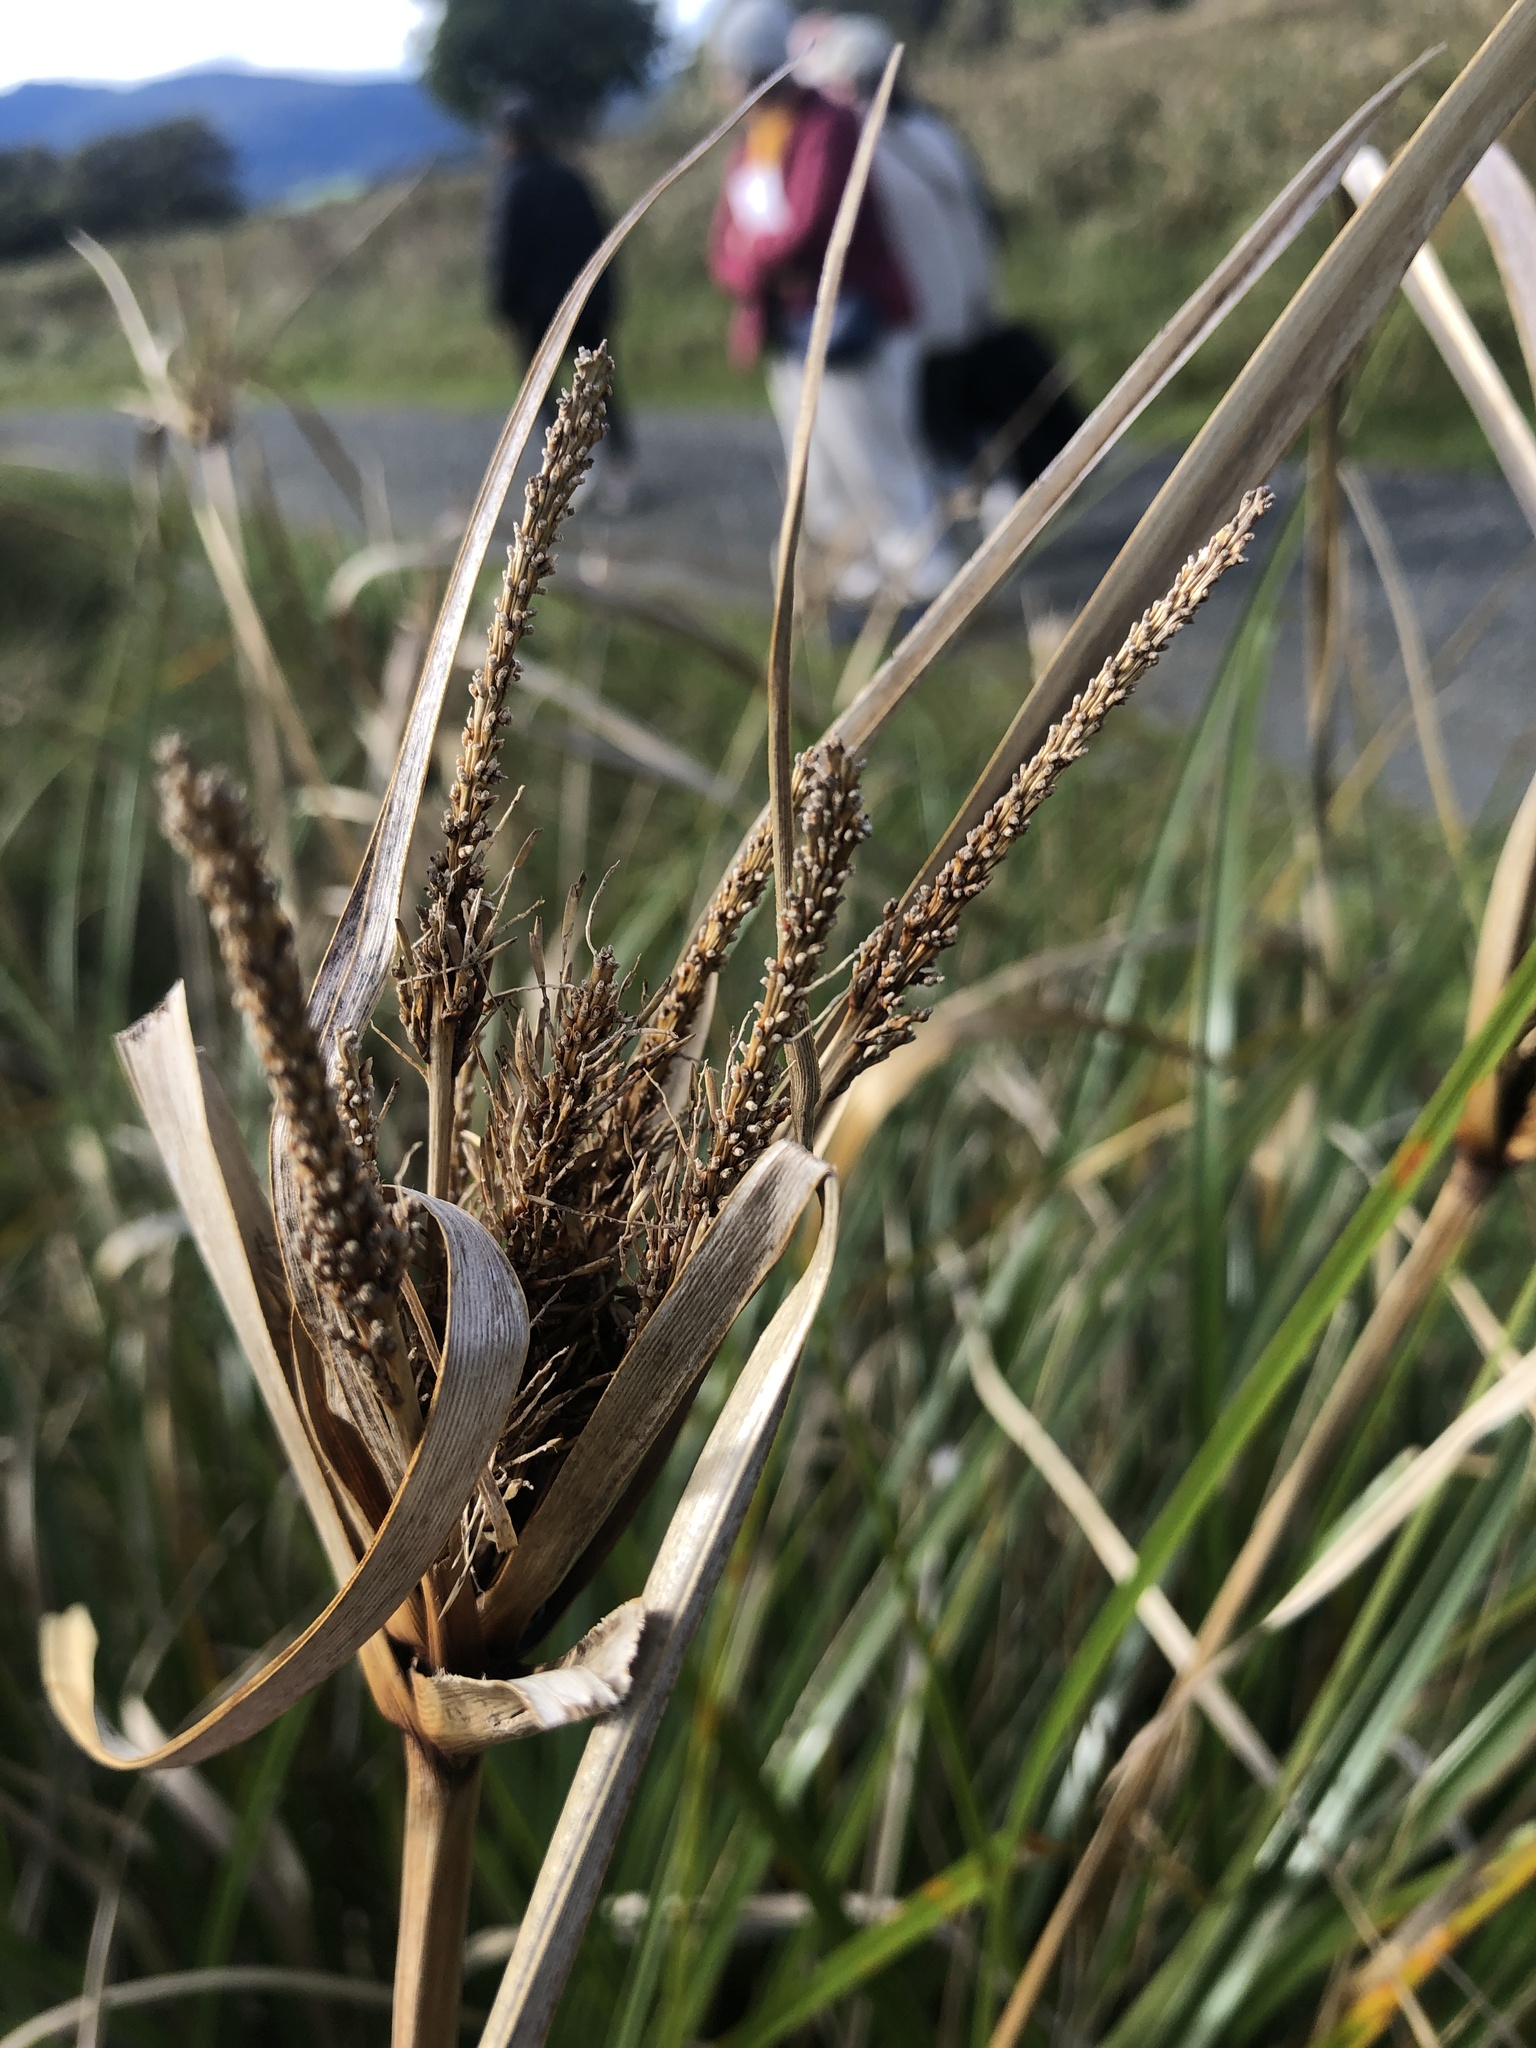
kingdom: Plantae
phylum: Tracheophyta
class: Liliopsida
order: Poales
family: Cyperaceae
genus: Cyperus
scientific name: Cyperus ustulatus
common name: Giant umbrella-sedge
